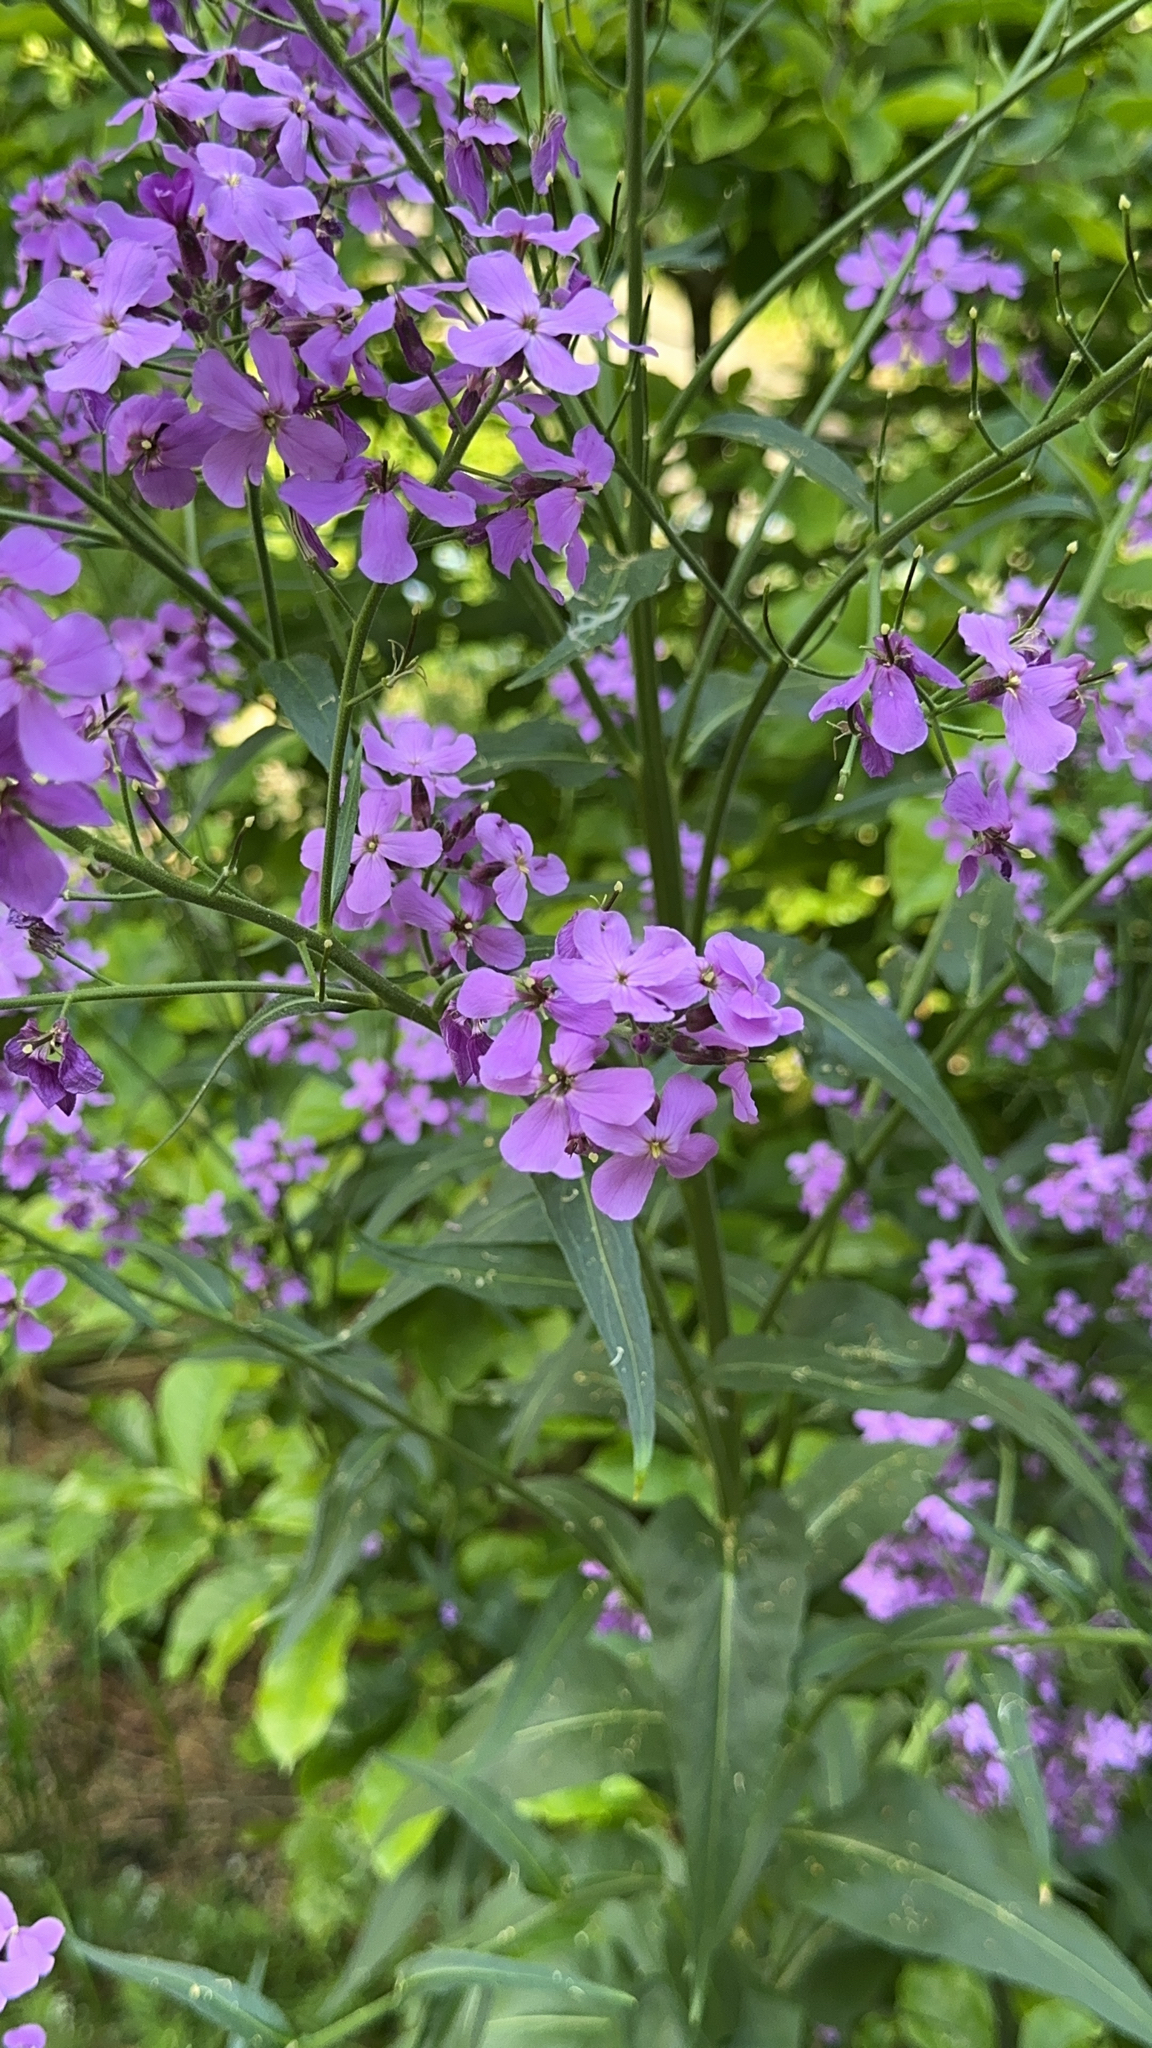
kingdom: Plantae
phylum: Tracheophyta
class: Magnoliopsida
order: Brassicales
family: Brassicaceae
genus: Hesperis
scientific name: Hesperis matronalis
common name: Dame's-violet
